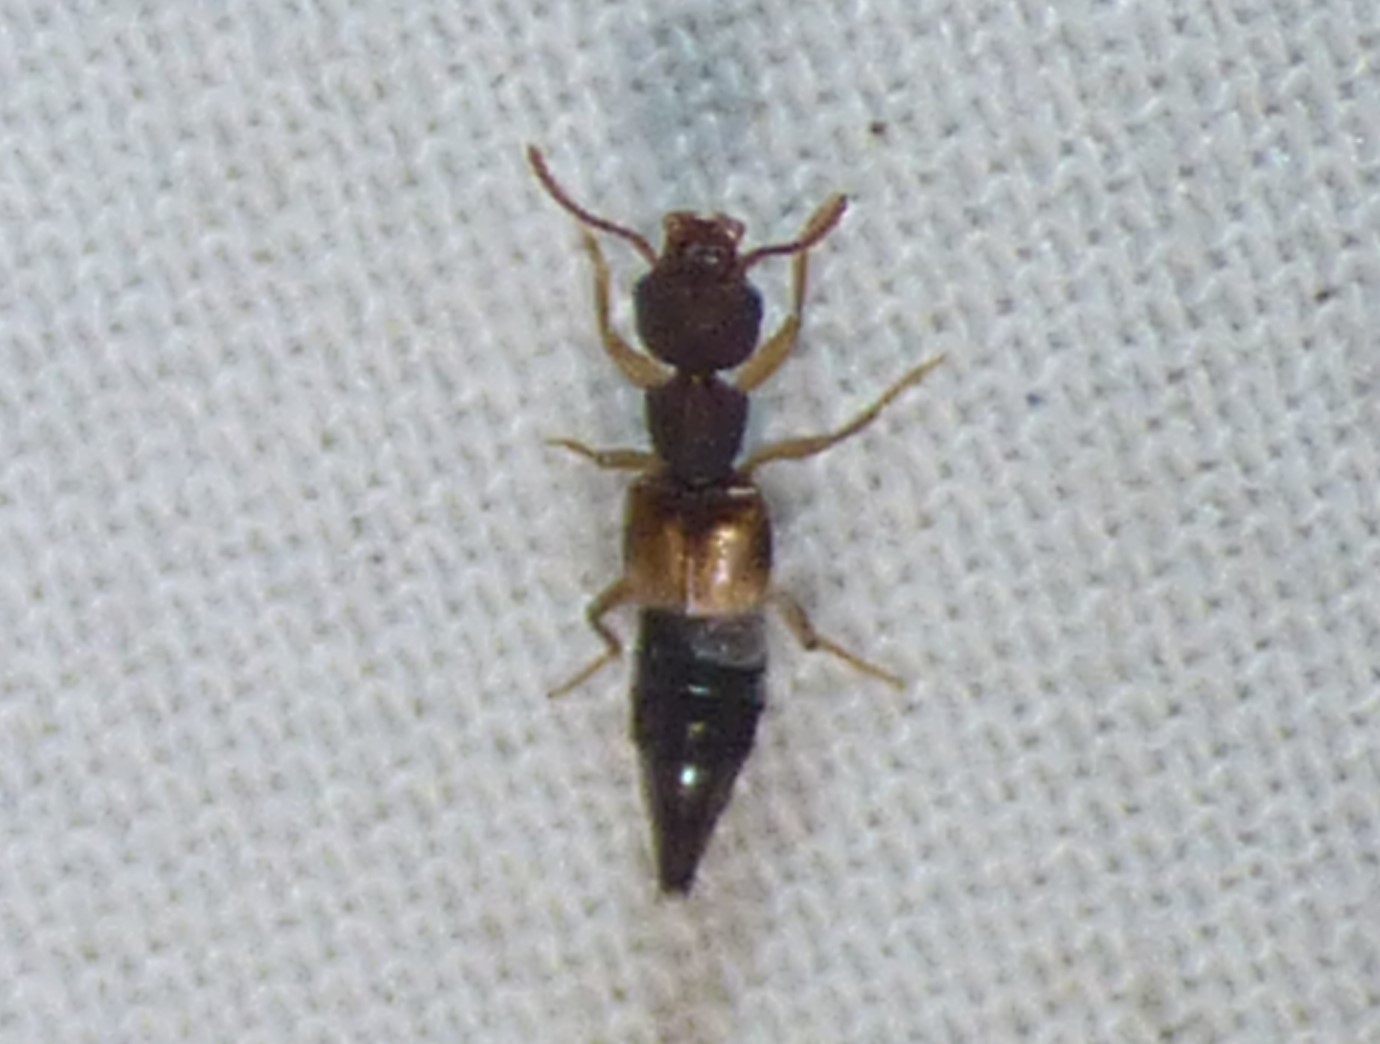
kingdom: Animalia
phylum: Arthropoda
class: Insecta
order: Coleoptera
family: Staphylinidae
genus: Rugilus
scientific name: Rugilus ceylanensis
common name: Asian rove beetle
